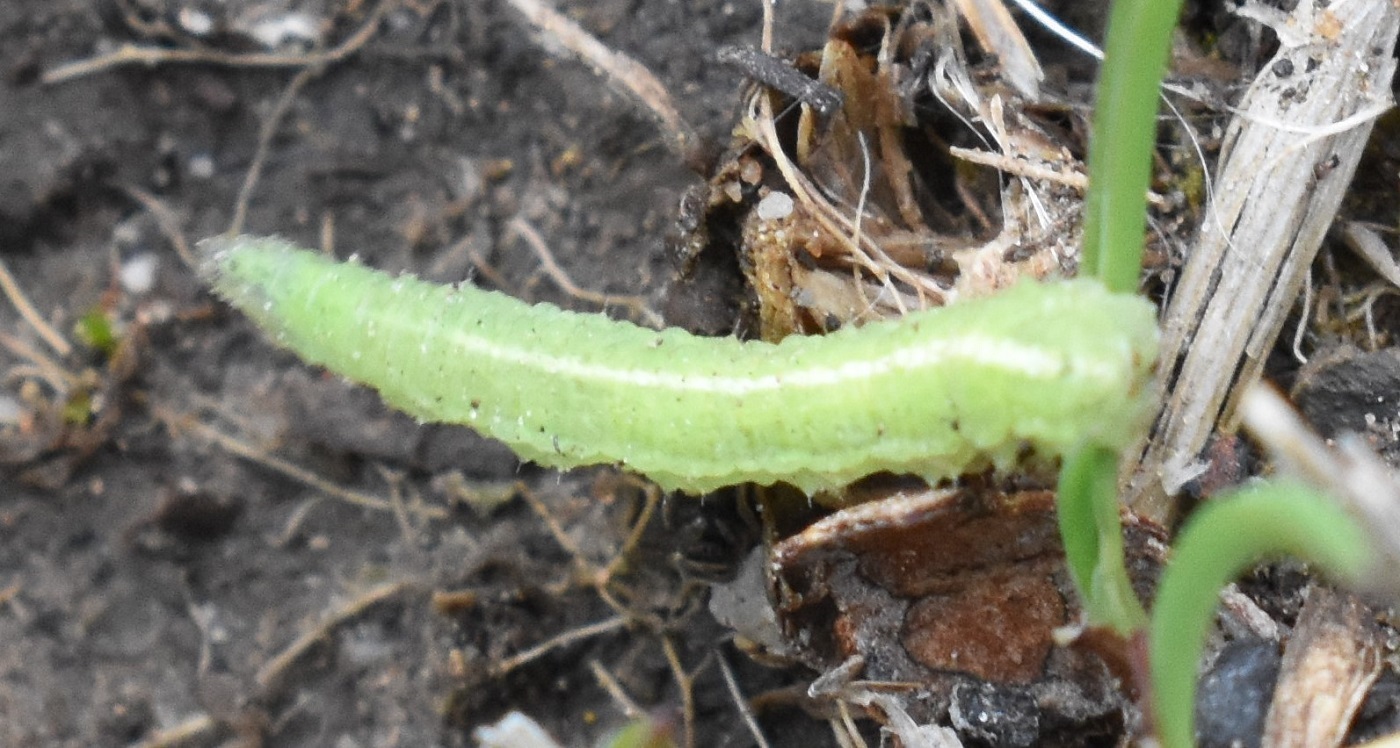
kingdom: Animalia
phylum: Arthropoda
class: Insecta
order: Diptera
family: Syrphidae
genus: Scaeva
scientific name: Scaeva affinis
